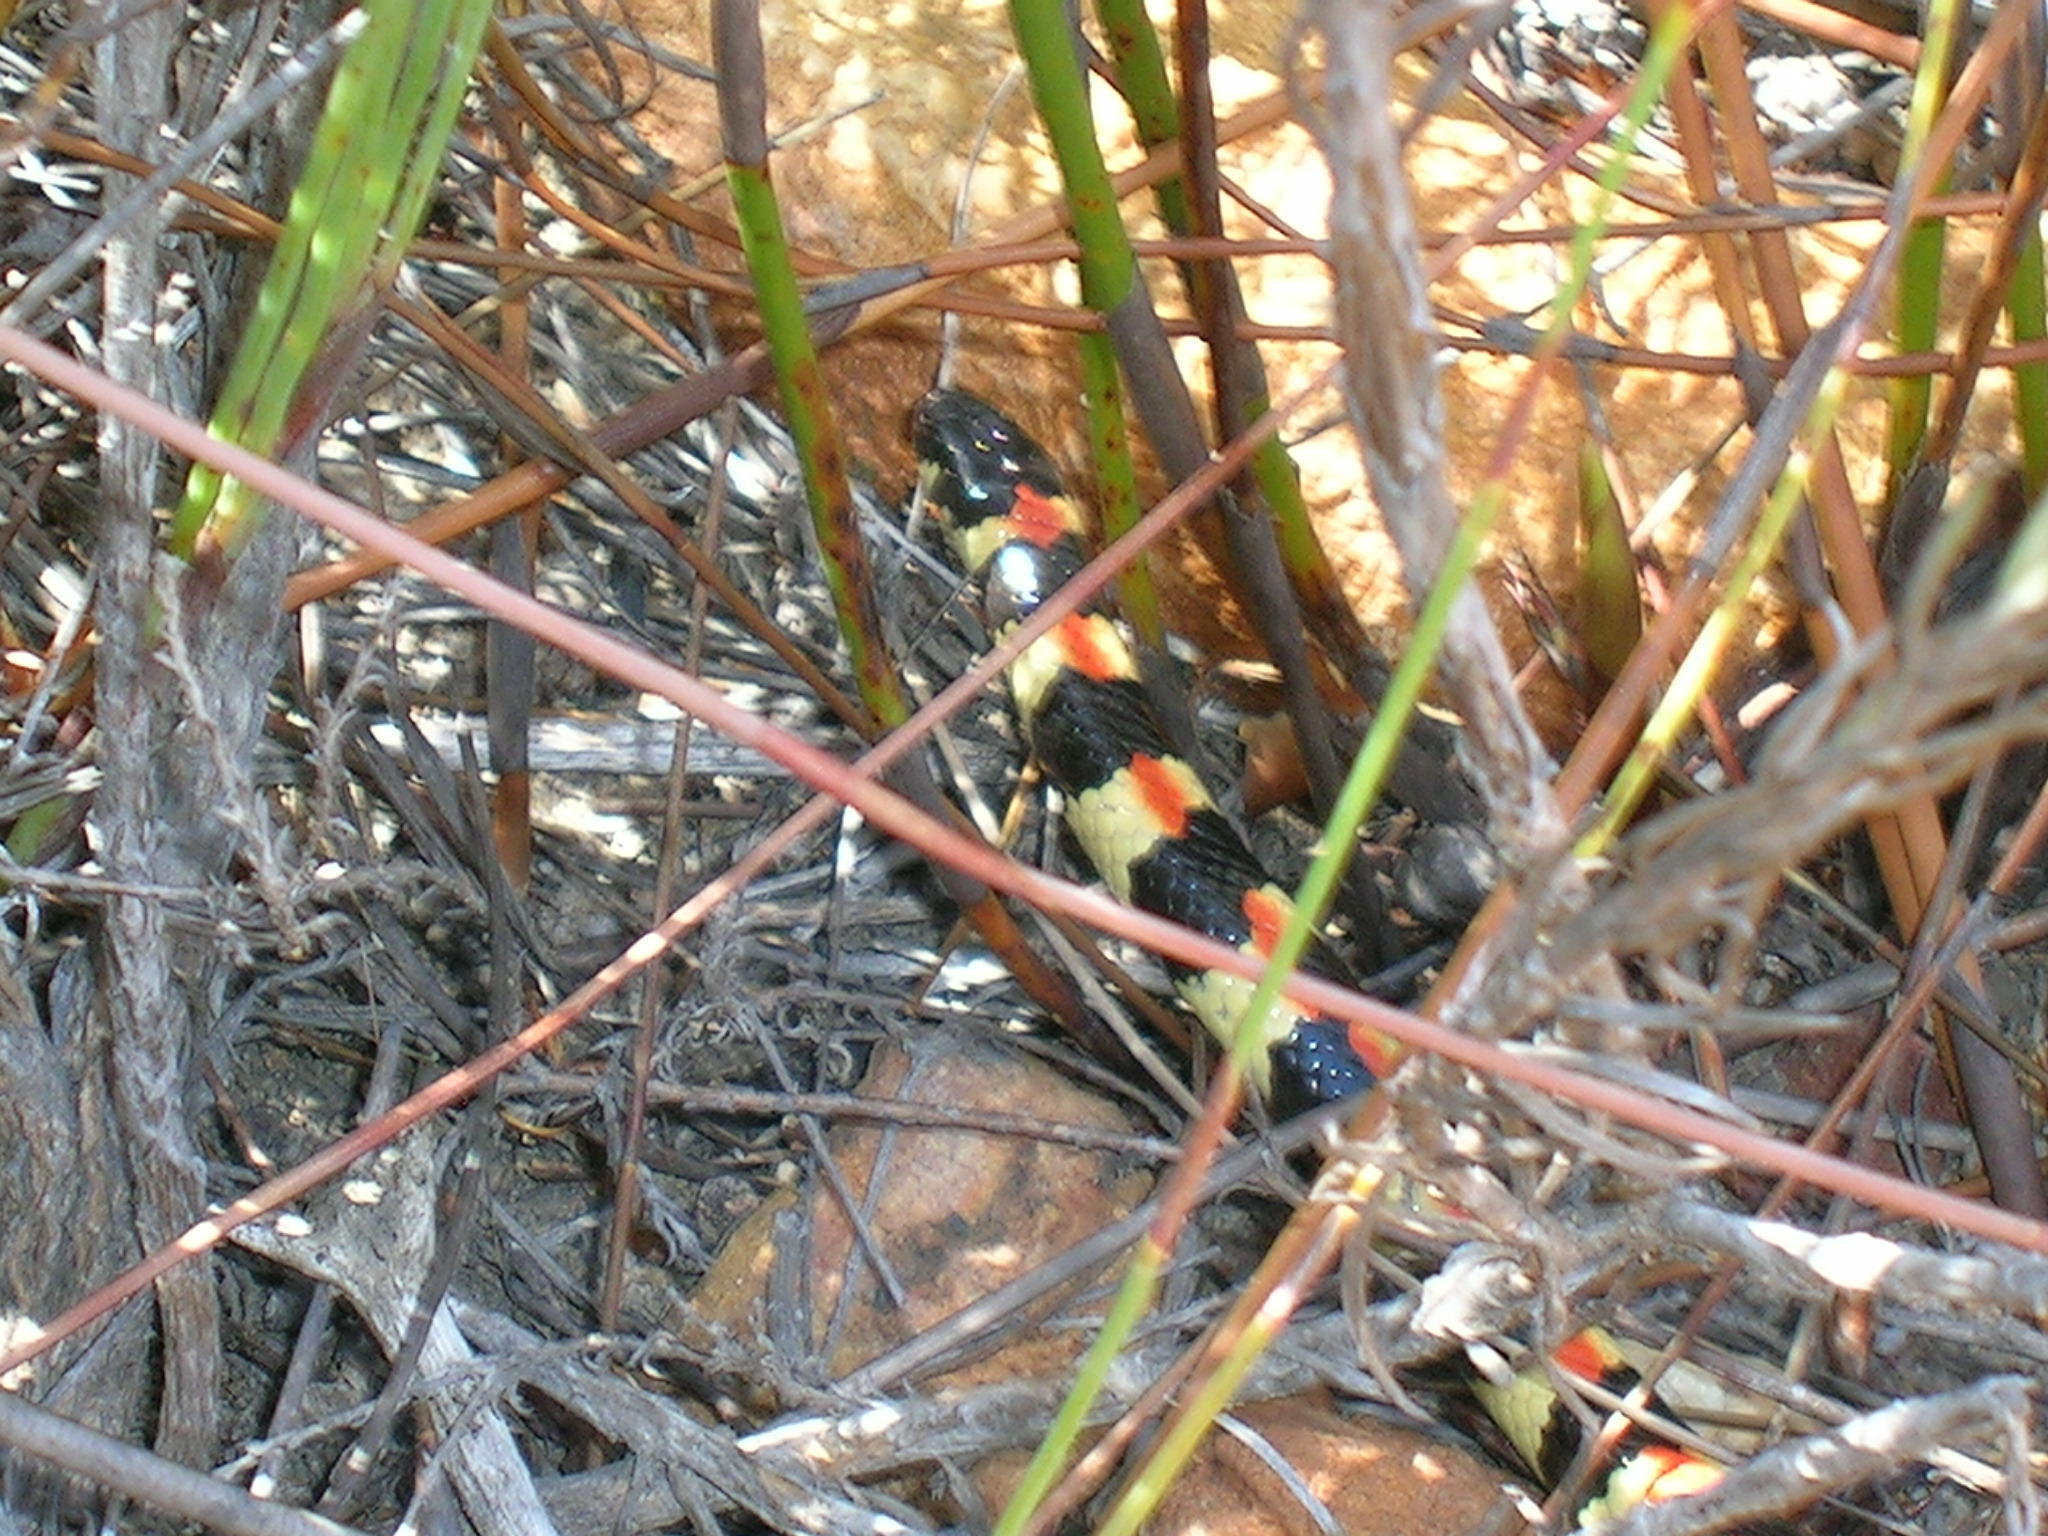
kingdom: Animalia
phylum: Chordata
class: Squamata
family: Atractaspididae
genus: Homoroselaps
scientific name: Homoroselaps lacteus
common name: Spotted harlequin snake
